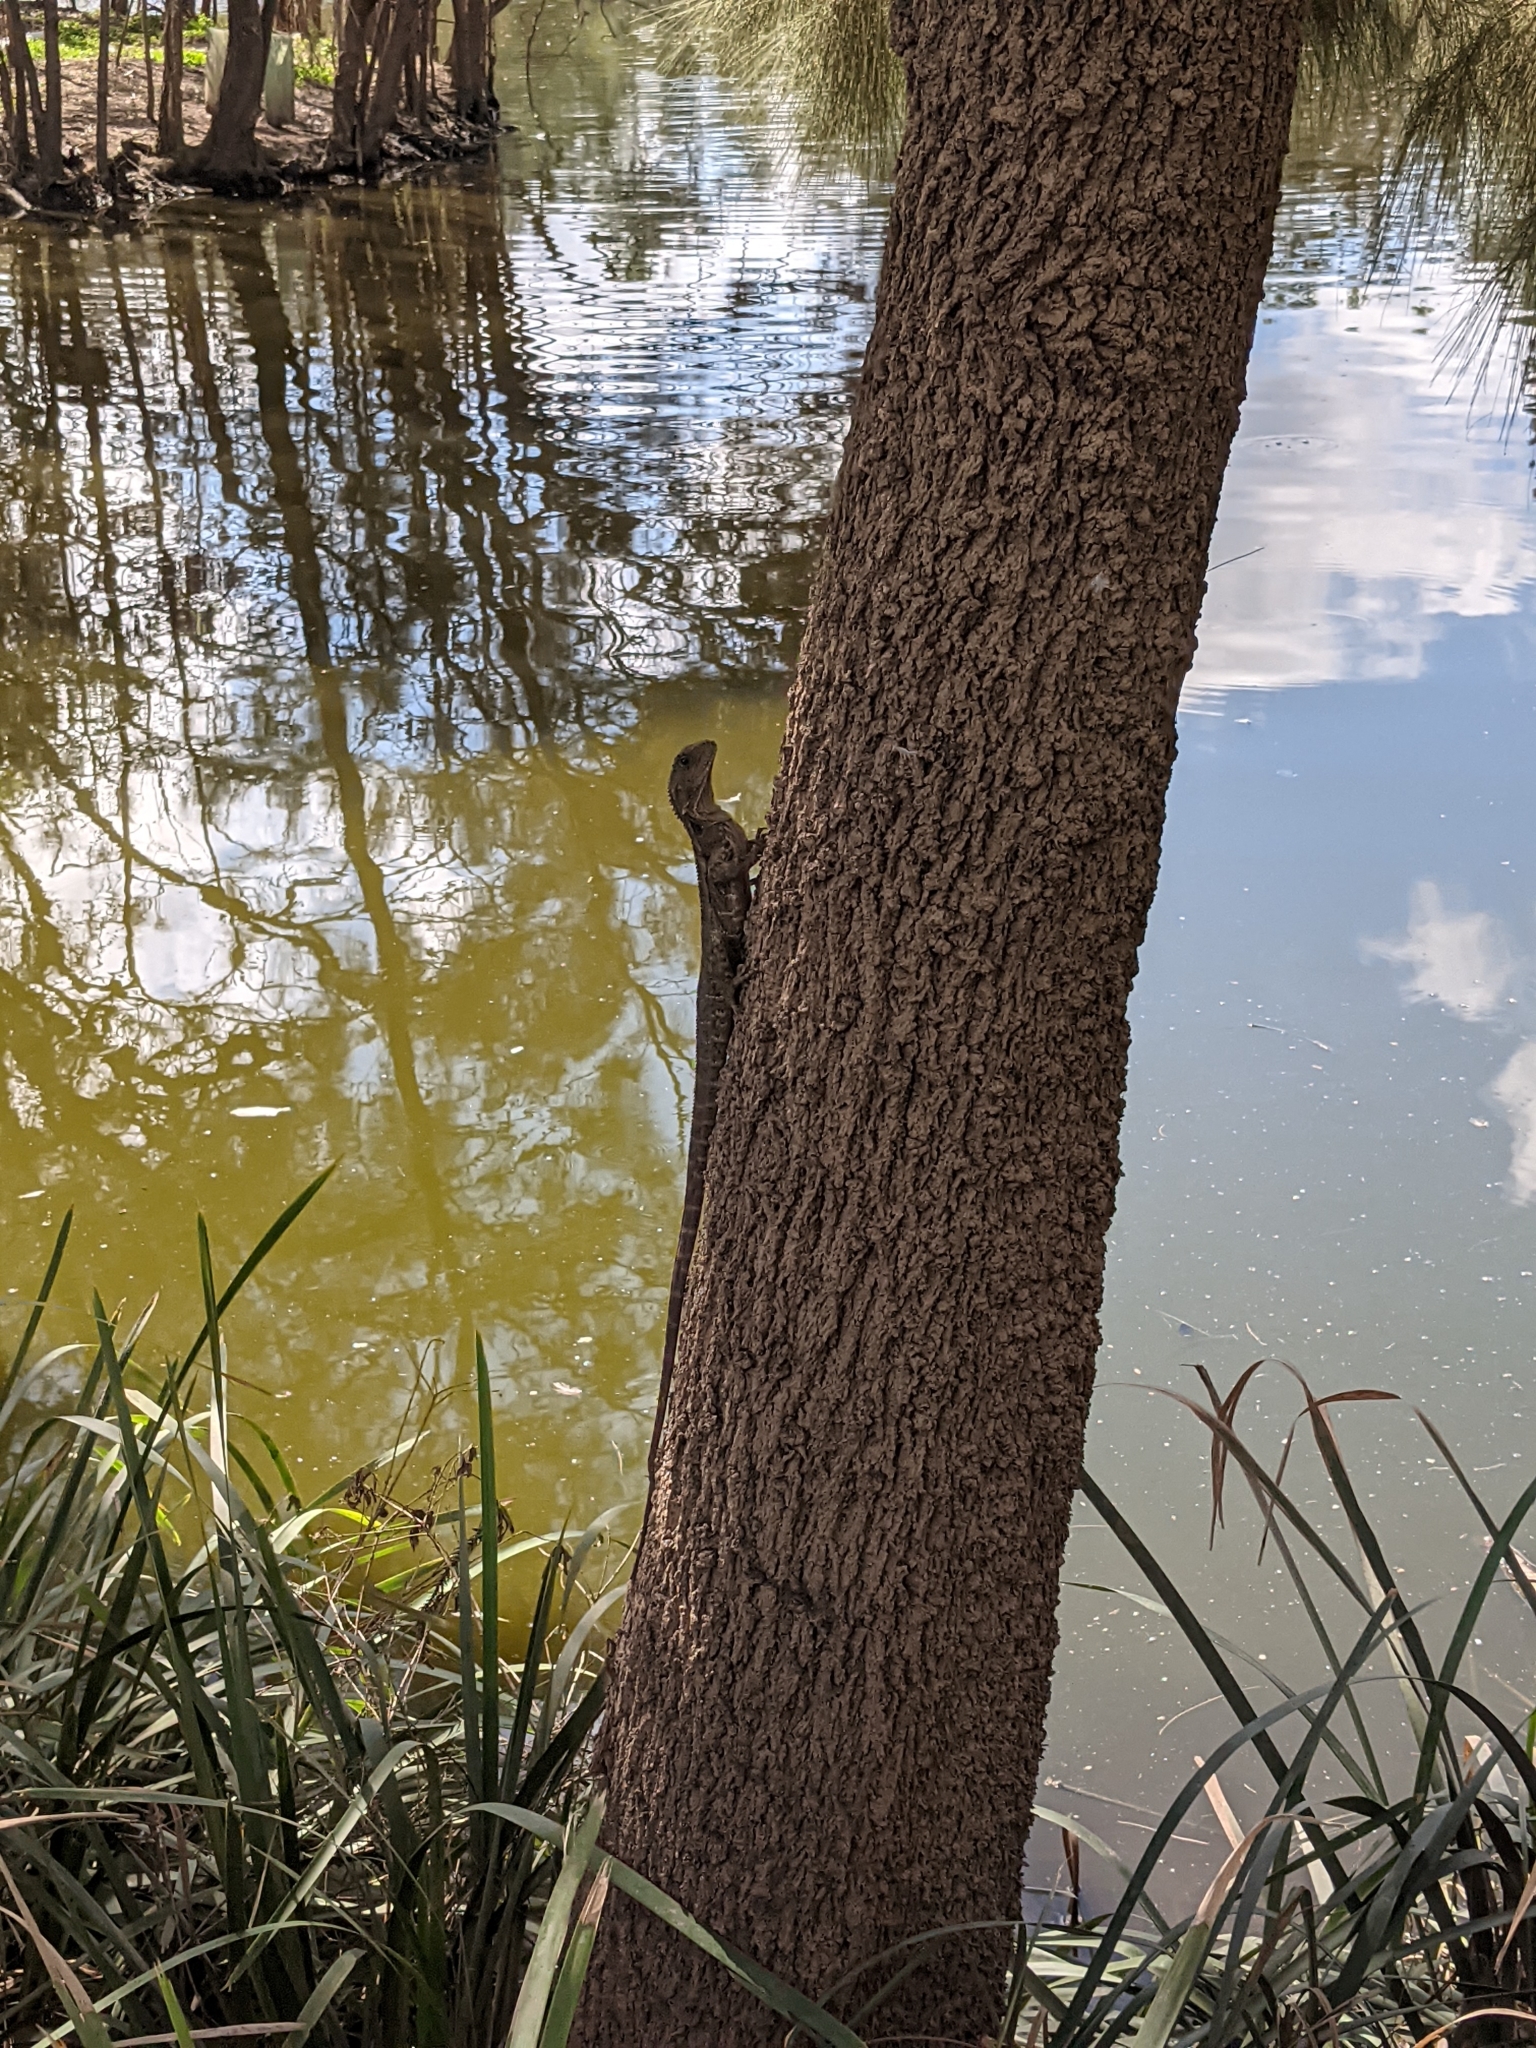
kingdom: Animalia
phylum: Chordata
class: Squamata
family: Agamidae
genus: Intellagama
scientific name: Intellagama lesueurii
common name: Eastern water dragon
